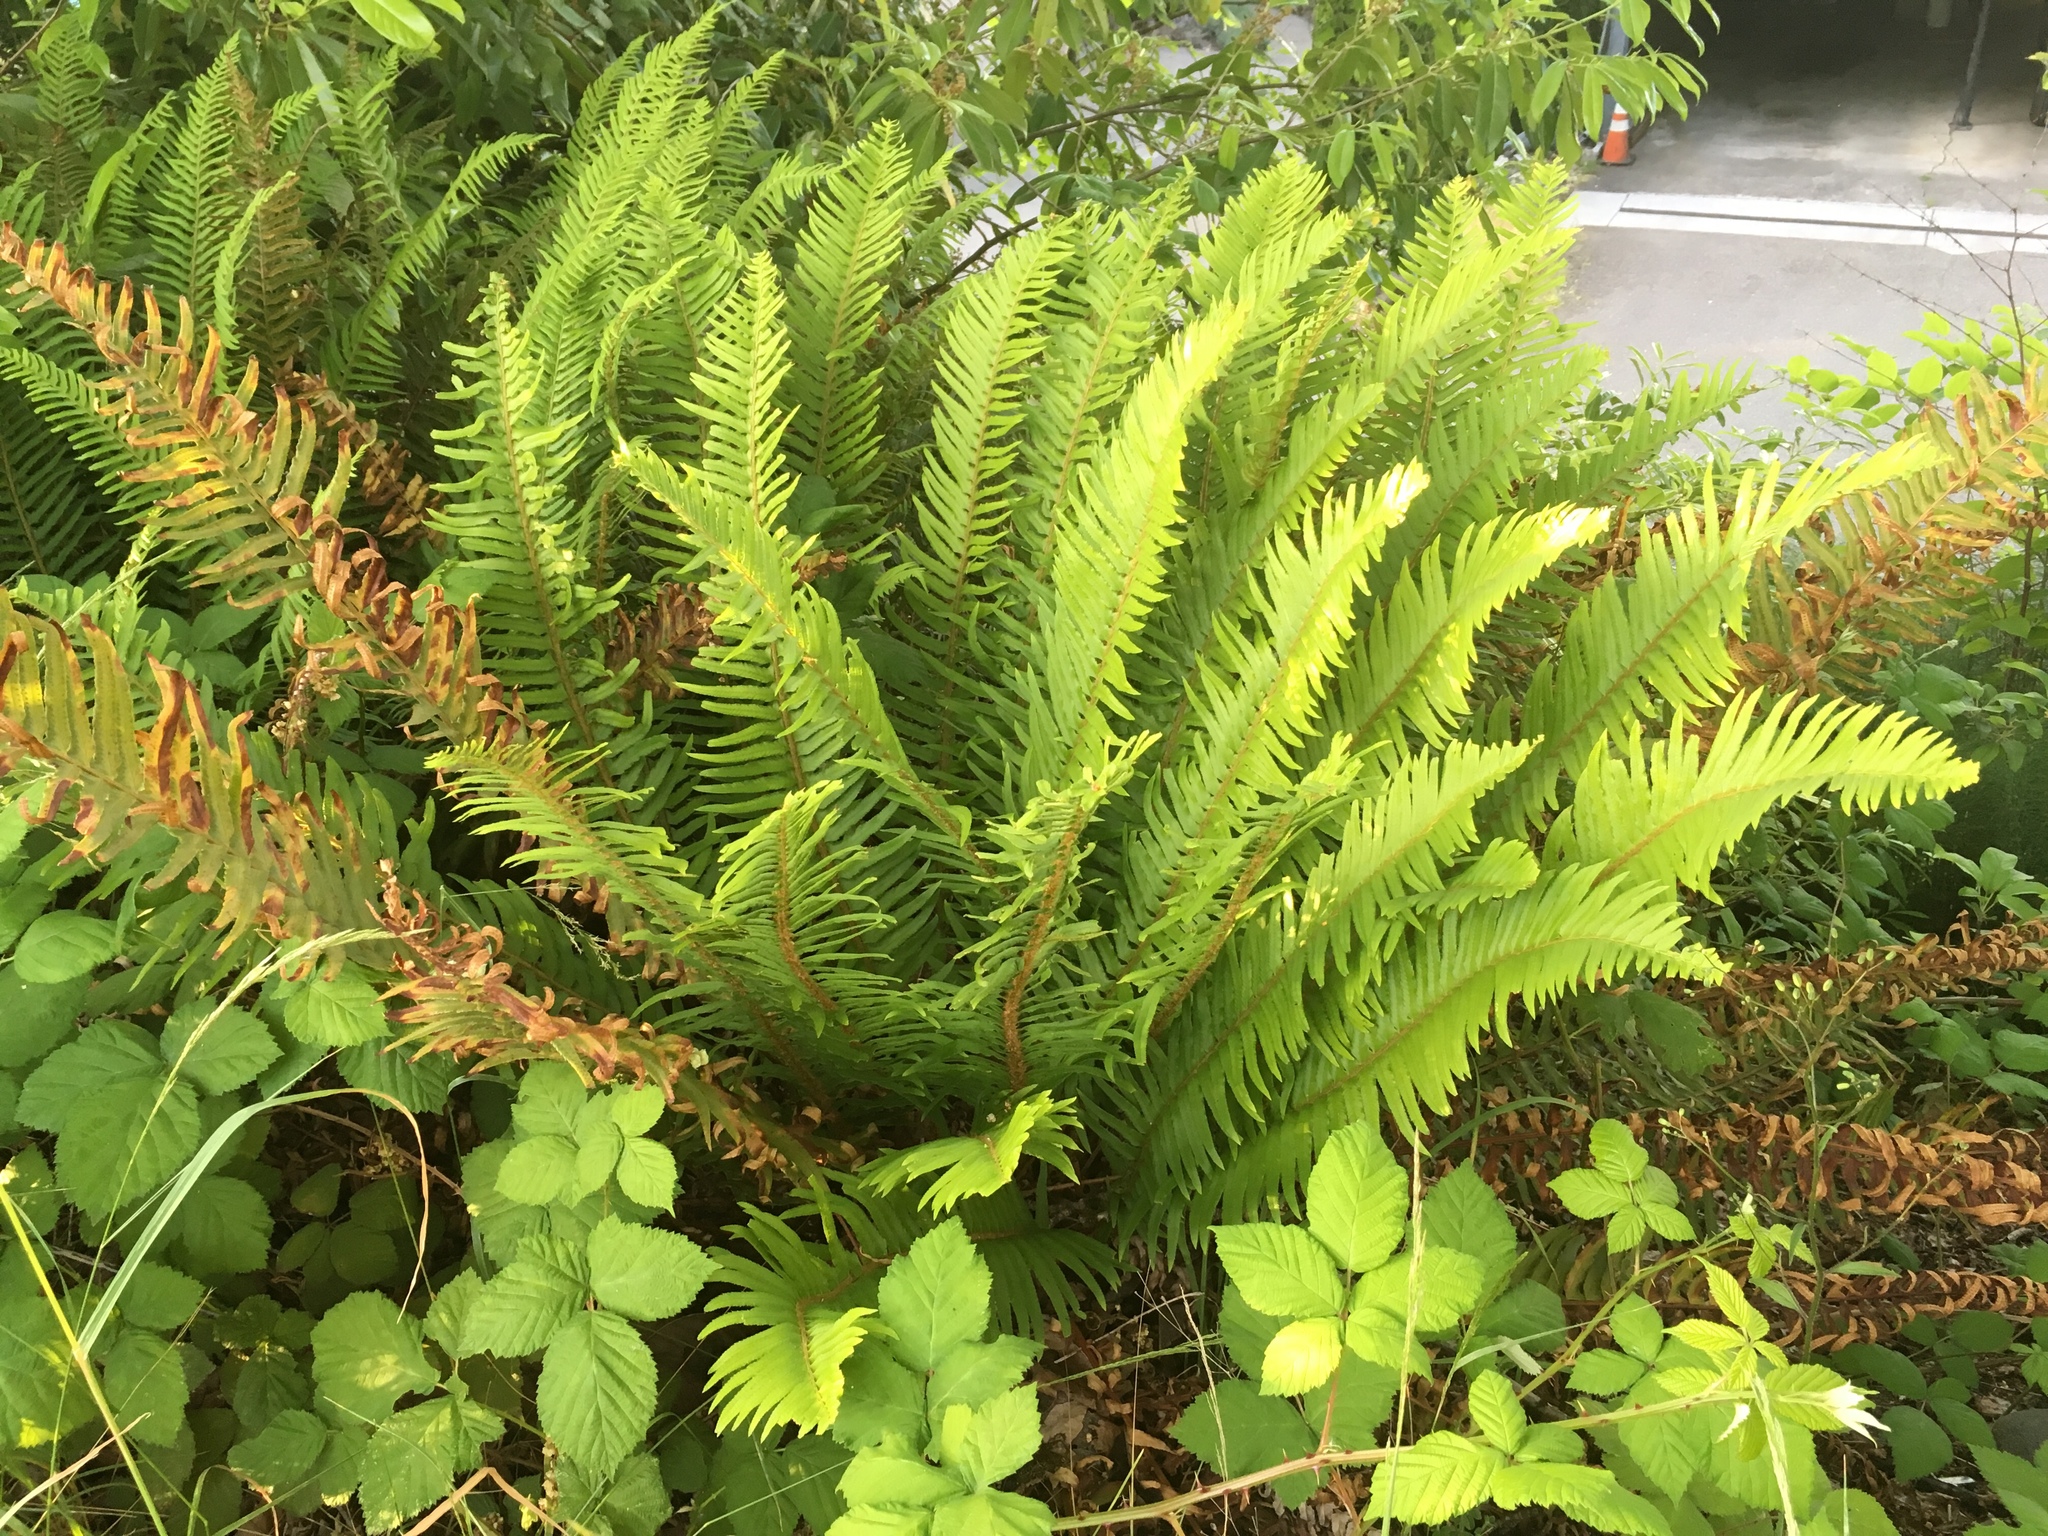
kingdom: Plantae
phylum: Tracheophyta
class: Polypodiopsida
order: Polypodiales
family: Dryopteridaceae
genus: Polystichum
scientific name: Polystichum munitum
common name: Western sword-fern
